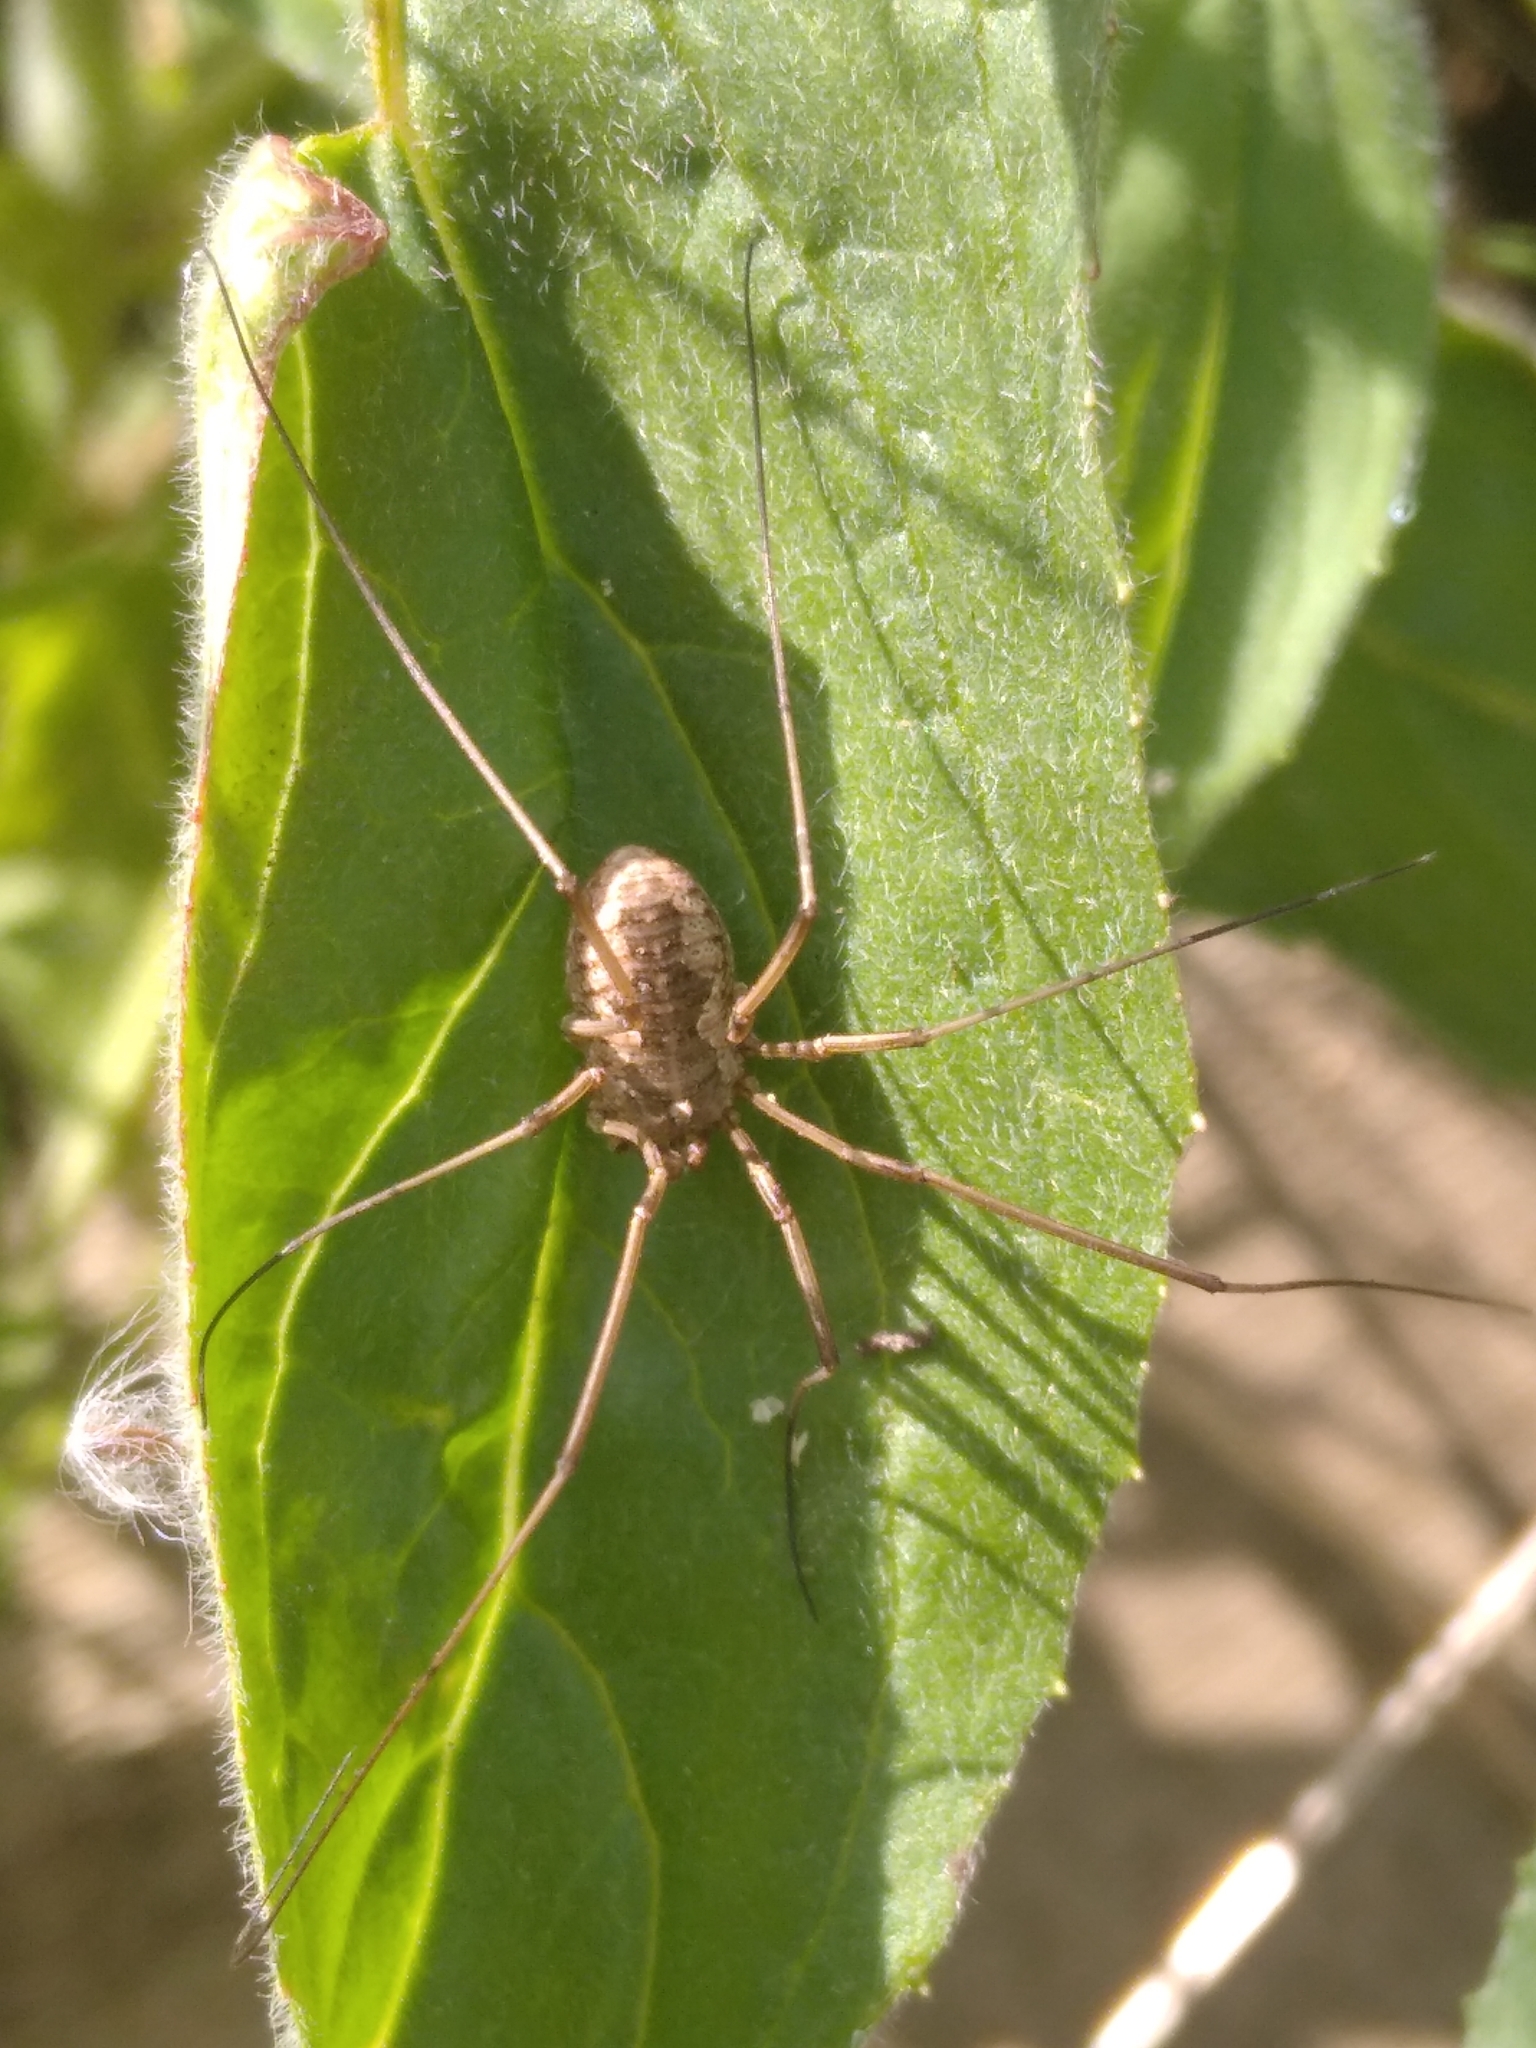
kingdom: Animalia
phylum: Arthropoda
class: Arachnida
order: Opiliones
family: Phalangiidae
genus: Phalangium
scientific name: Phalangium opilio
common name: Daddy longleg
